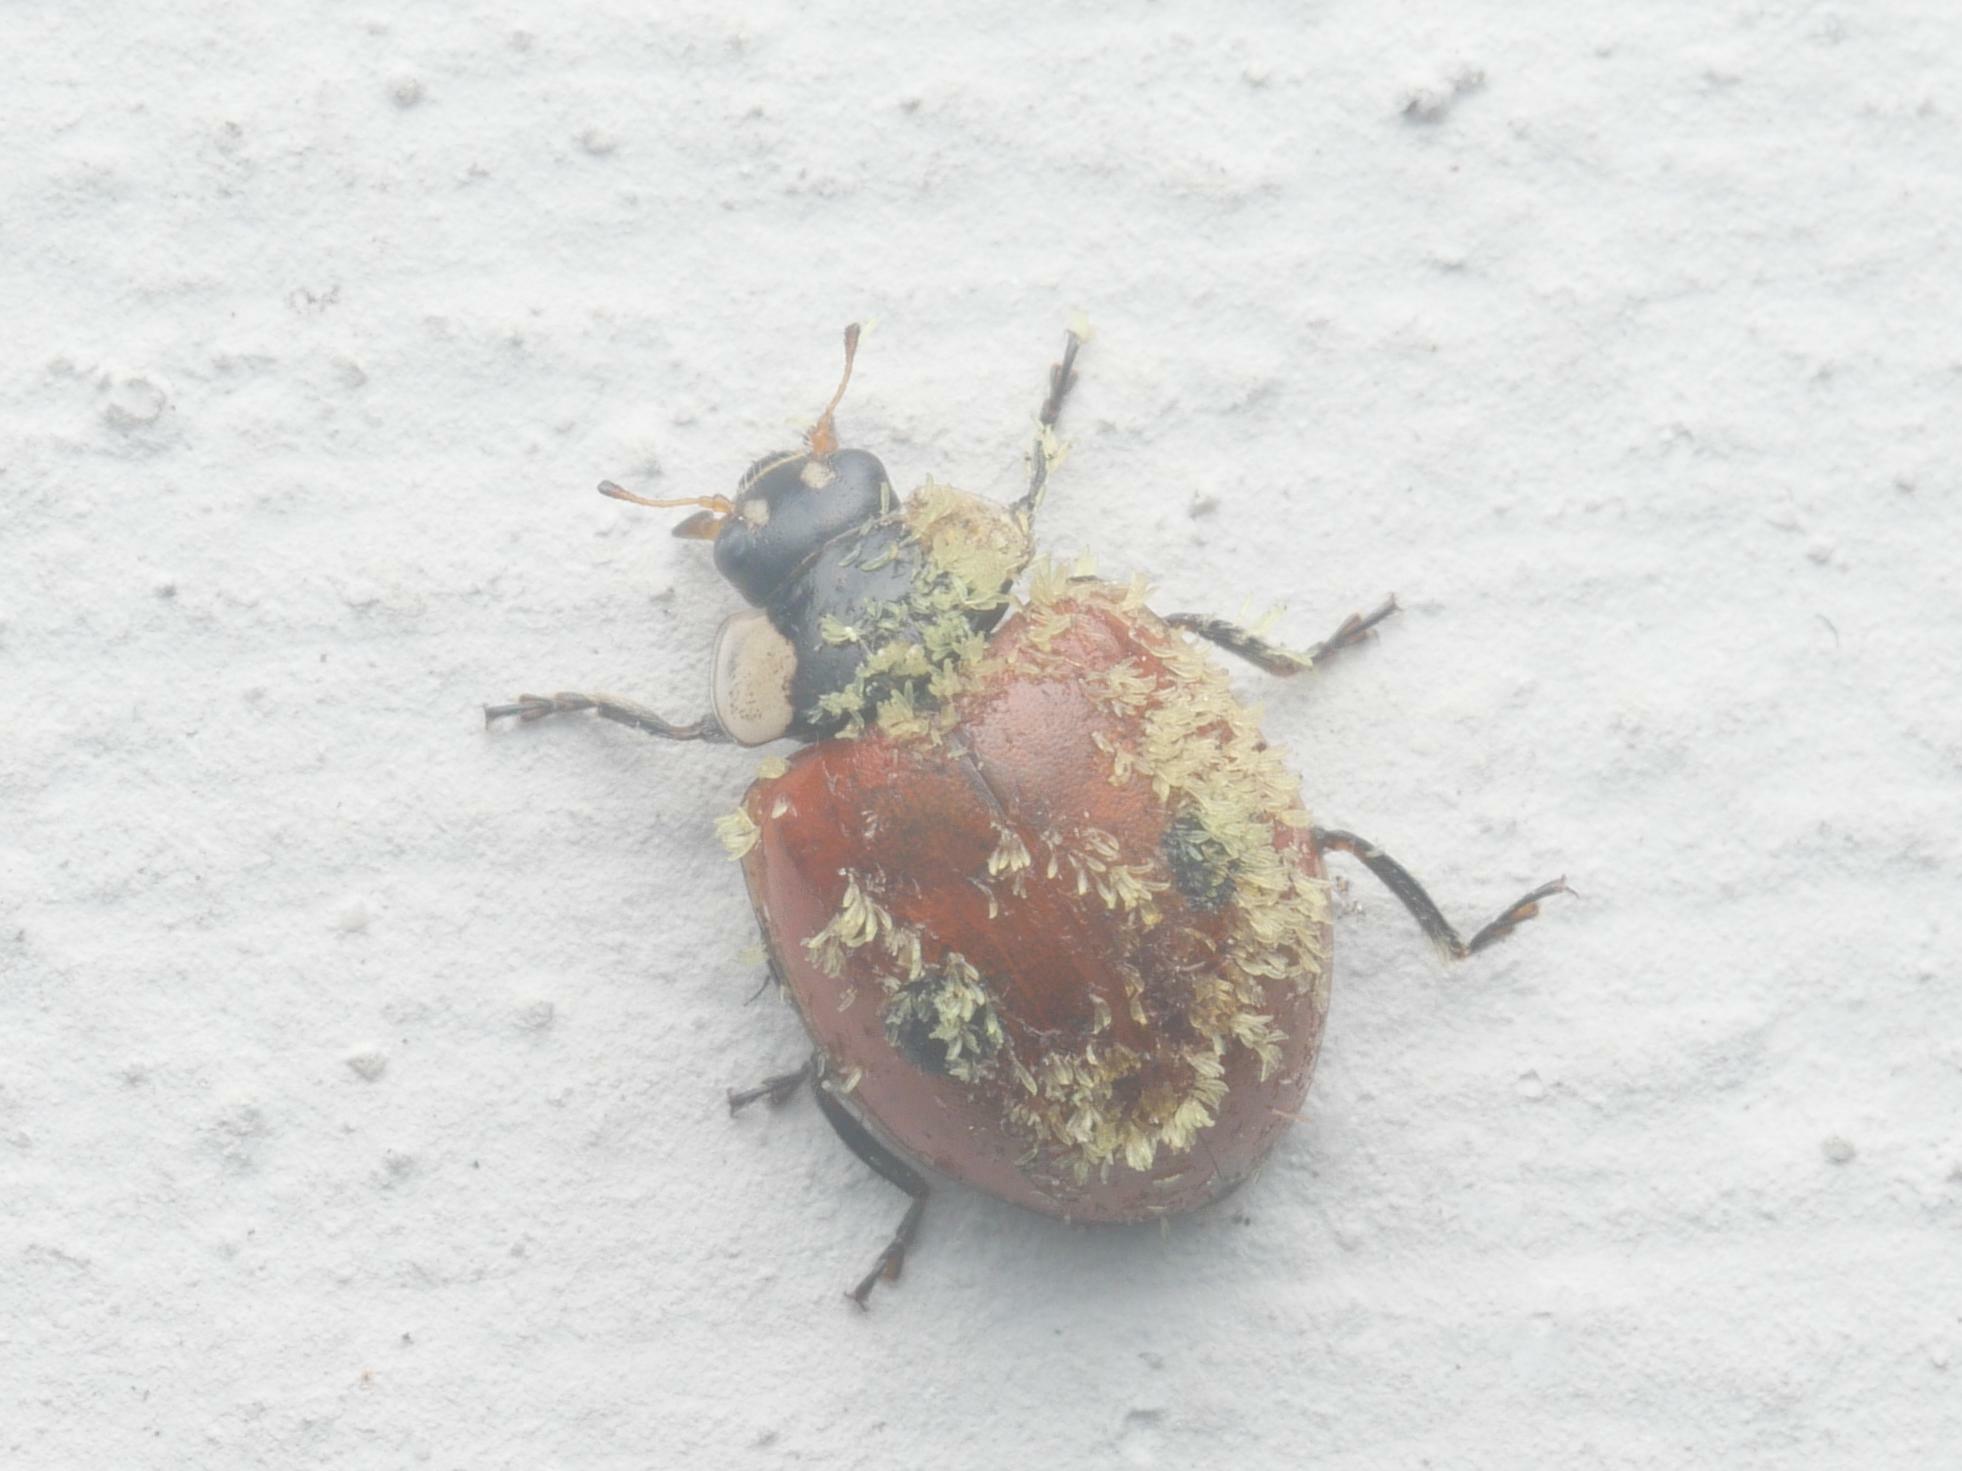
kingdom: Animalia
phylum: Arthropoda
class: Insecta
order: Coleoptera
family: Coccinellidae
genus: Adalia
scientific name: Adalia bipunctata
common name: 2-spot ladybird
